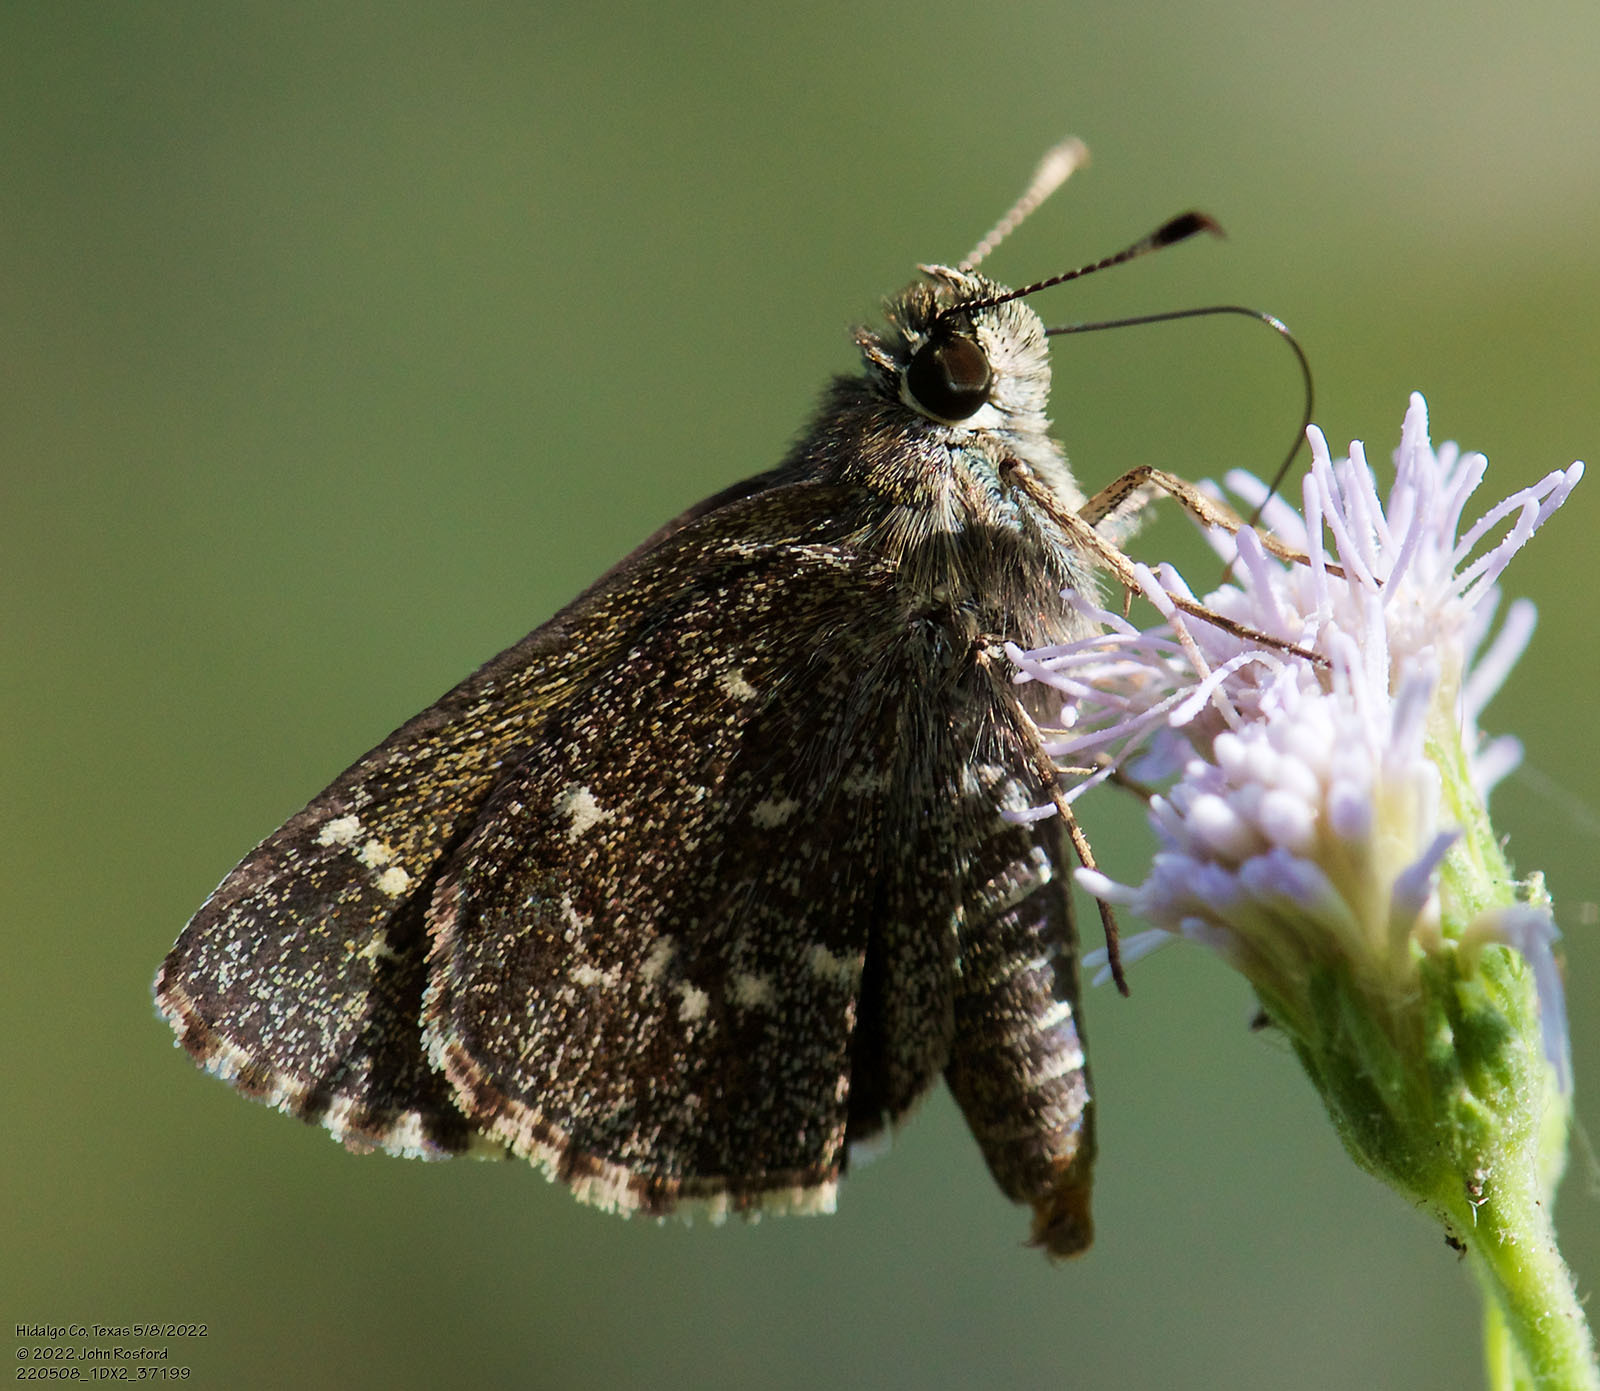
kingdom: Animalia
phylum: Arthropoda
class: Insecta
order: Lepidoptera
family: Hesperiidae
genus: Mastor
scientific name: Mastor celia
